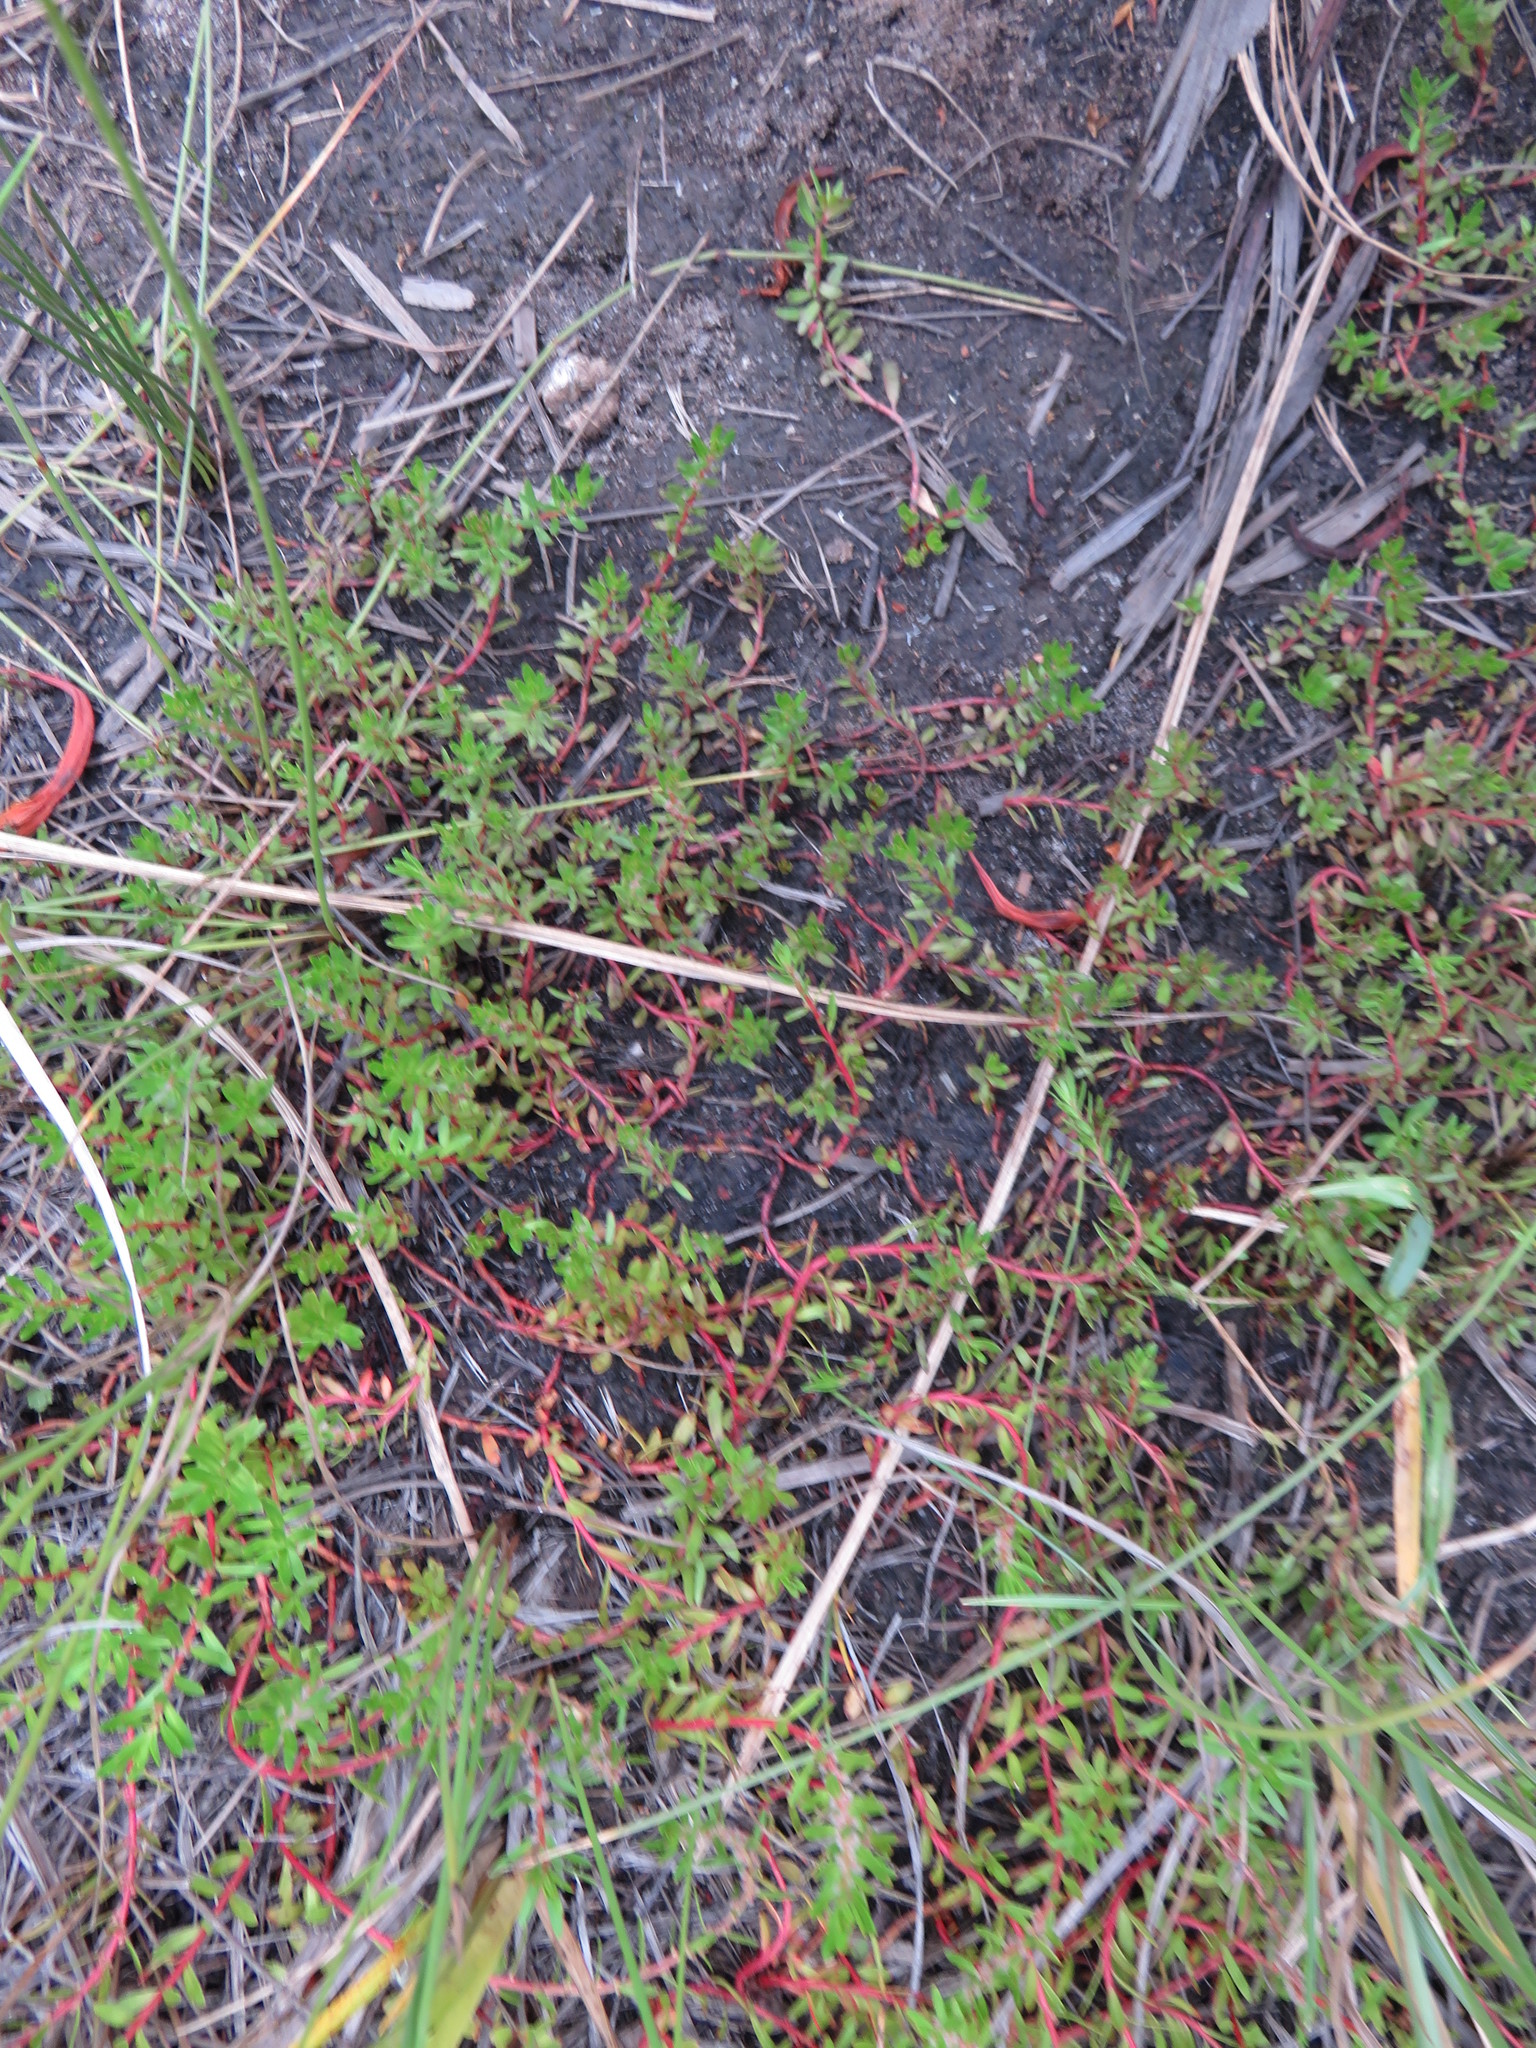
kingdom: Plantae
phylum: Tracheophyta
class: Magnoliopsida
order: Saxifragales
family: Haloragaceae
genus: Laurembergia
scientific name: Laurembergia repens
